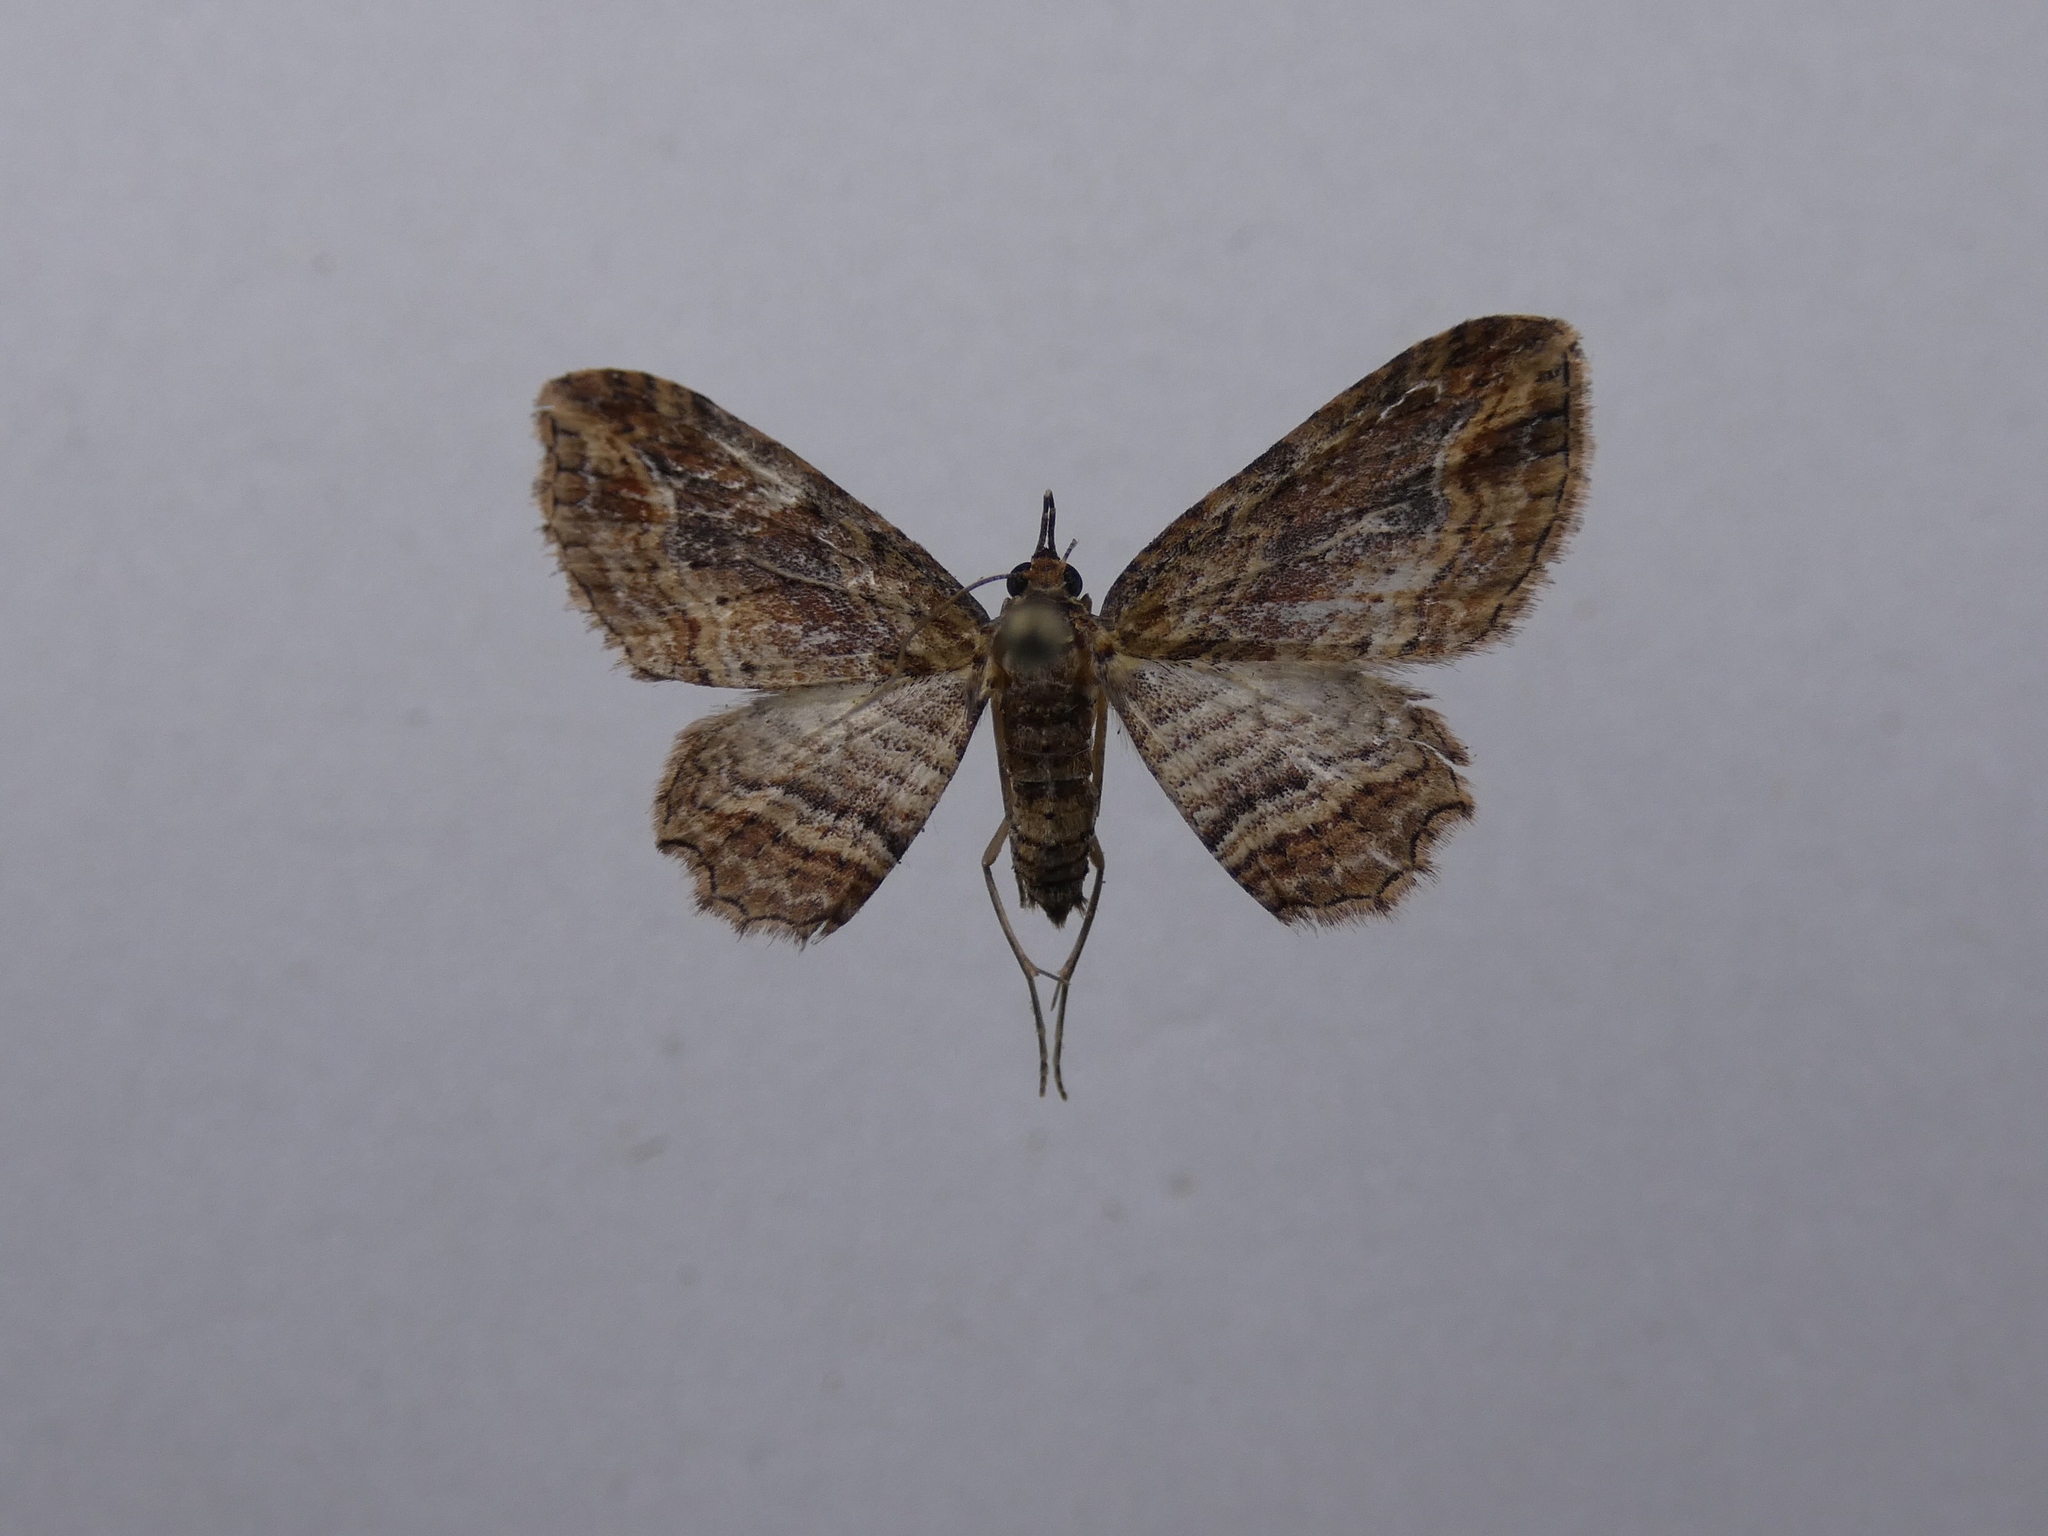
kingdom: Animalia
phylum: Arthropoda
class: Insecta
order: Lepidoptera
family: Geometridae
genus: Chloroclystis
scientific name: Chloroclystis filata
